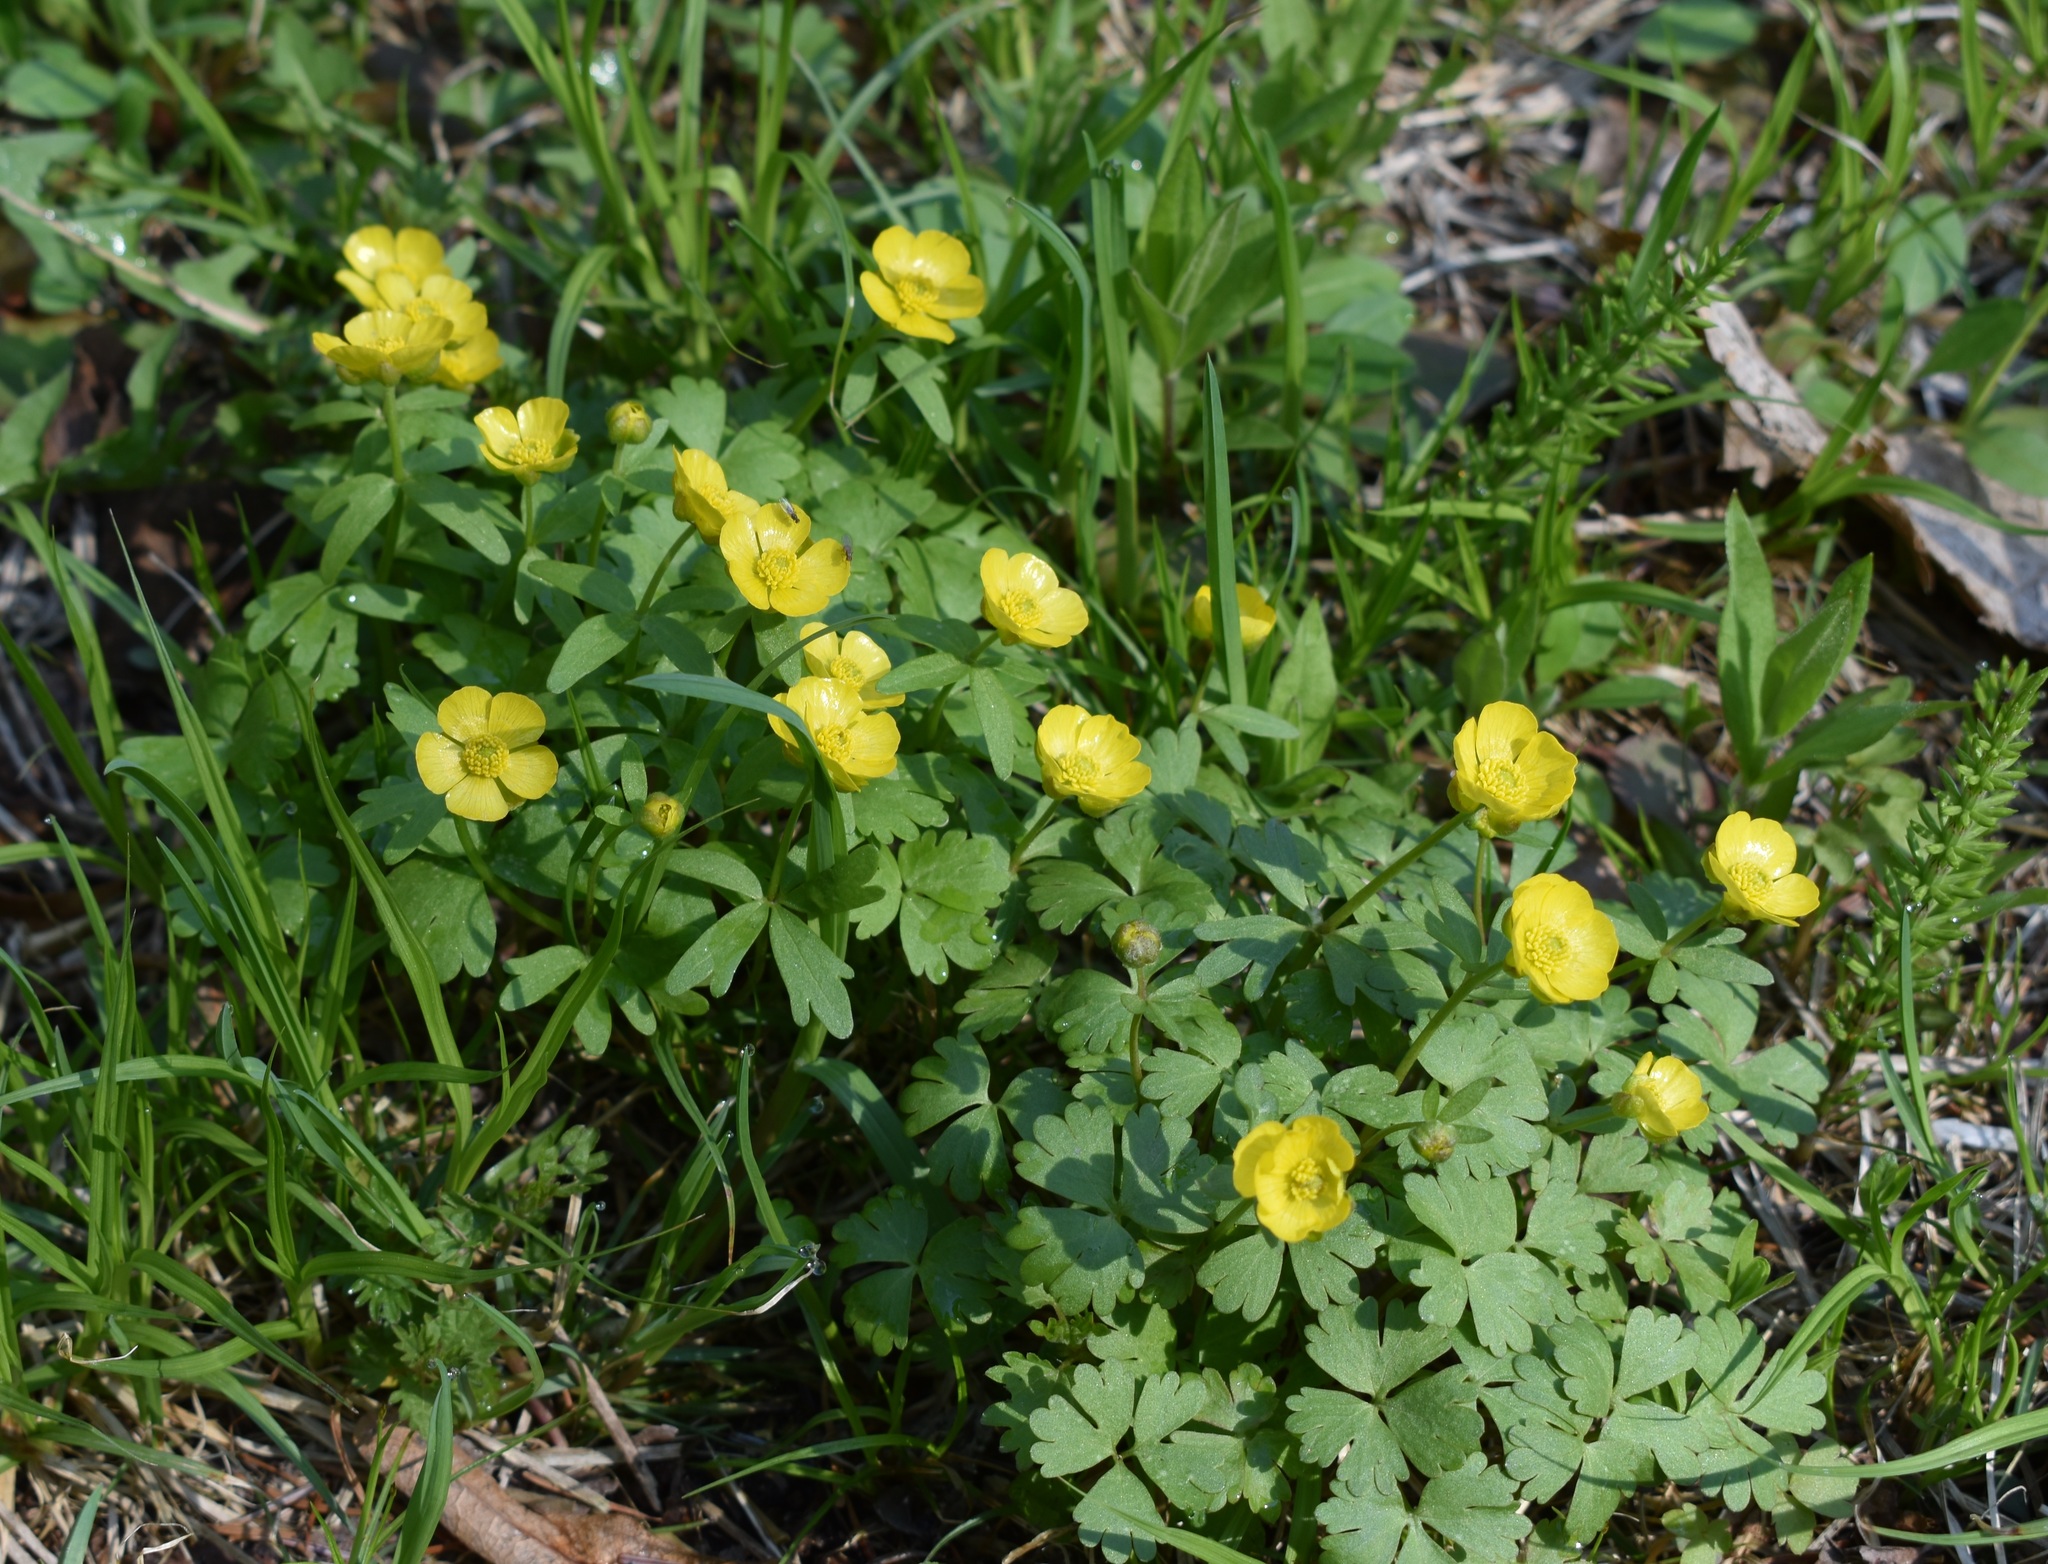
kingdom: Plantae
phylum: Tracheophyta
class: Magnoliopsida
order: Ranunculales
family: Ranunculaceae
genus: Ranunculus
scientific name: Ranunculus franchetii
